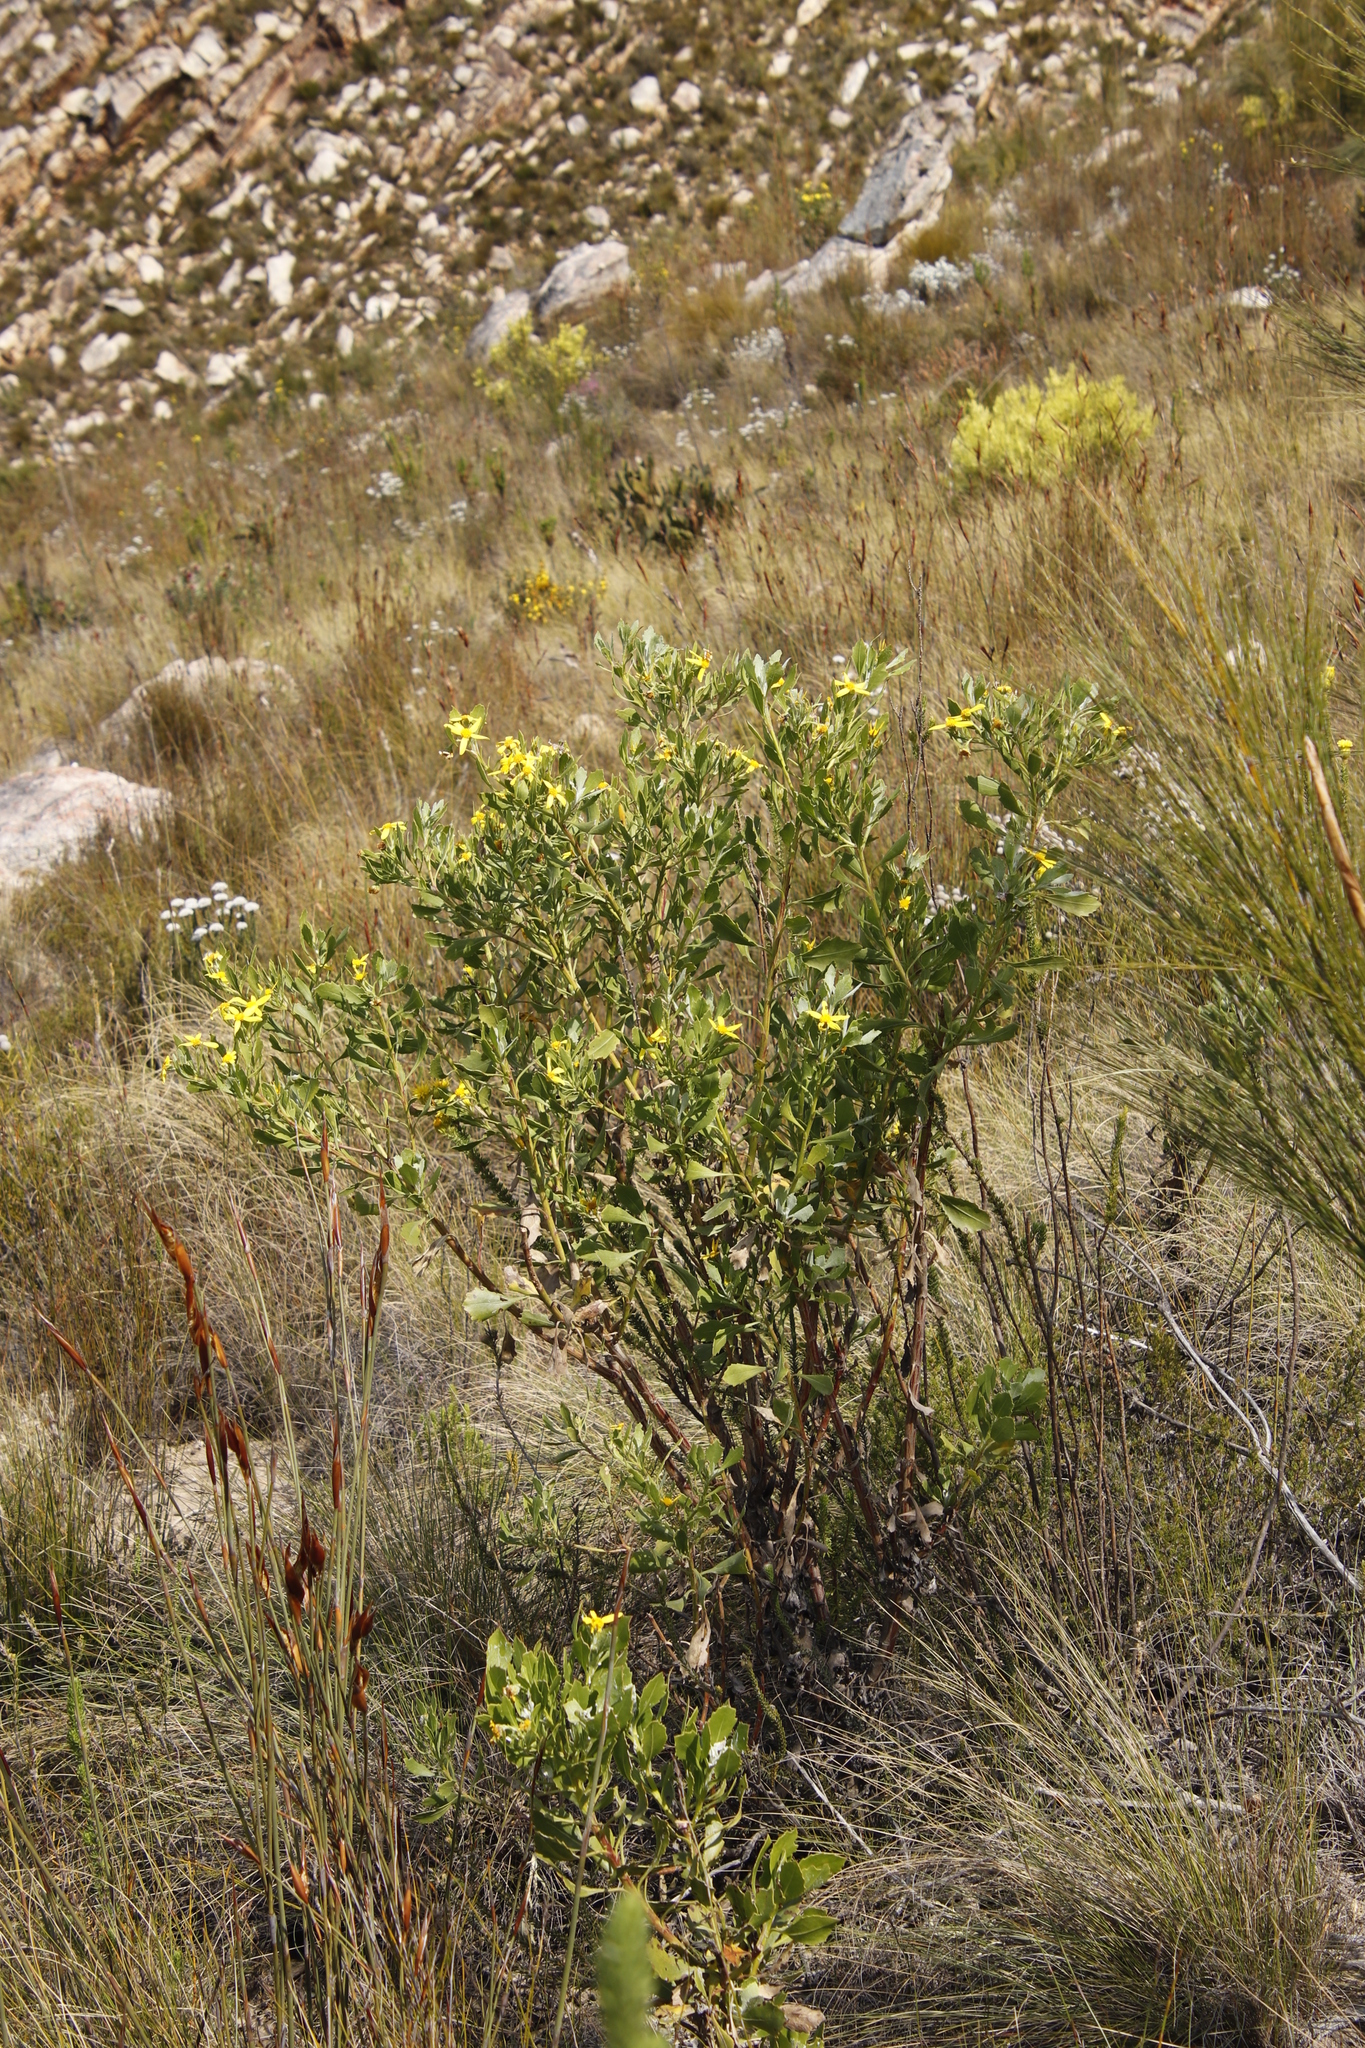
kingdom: Plantae
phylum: Tracheophyta
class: Magnoliopsida
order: Asterales
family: Asteraceae
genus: Osteospermum
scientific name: Osteospermum moniliferum
